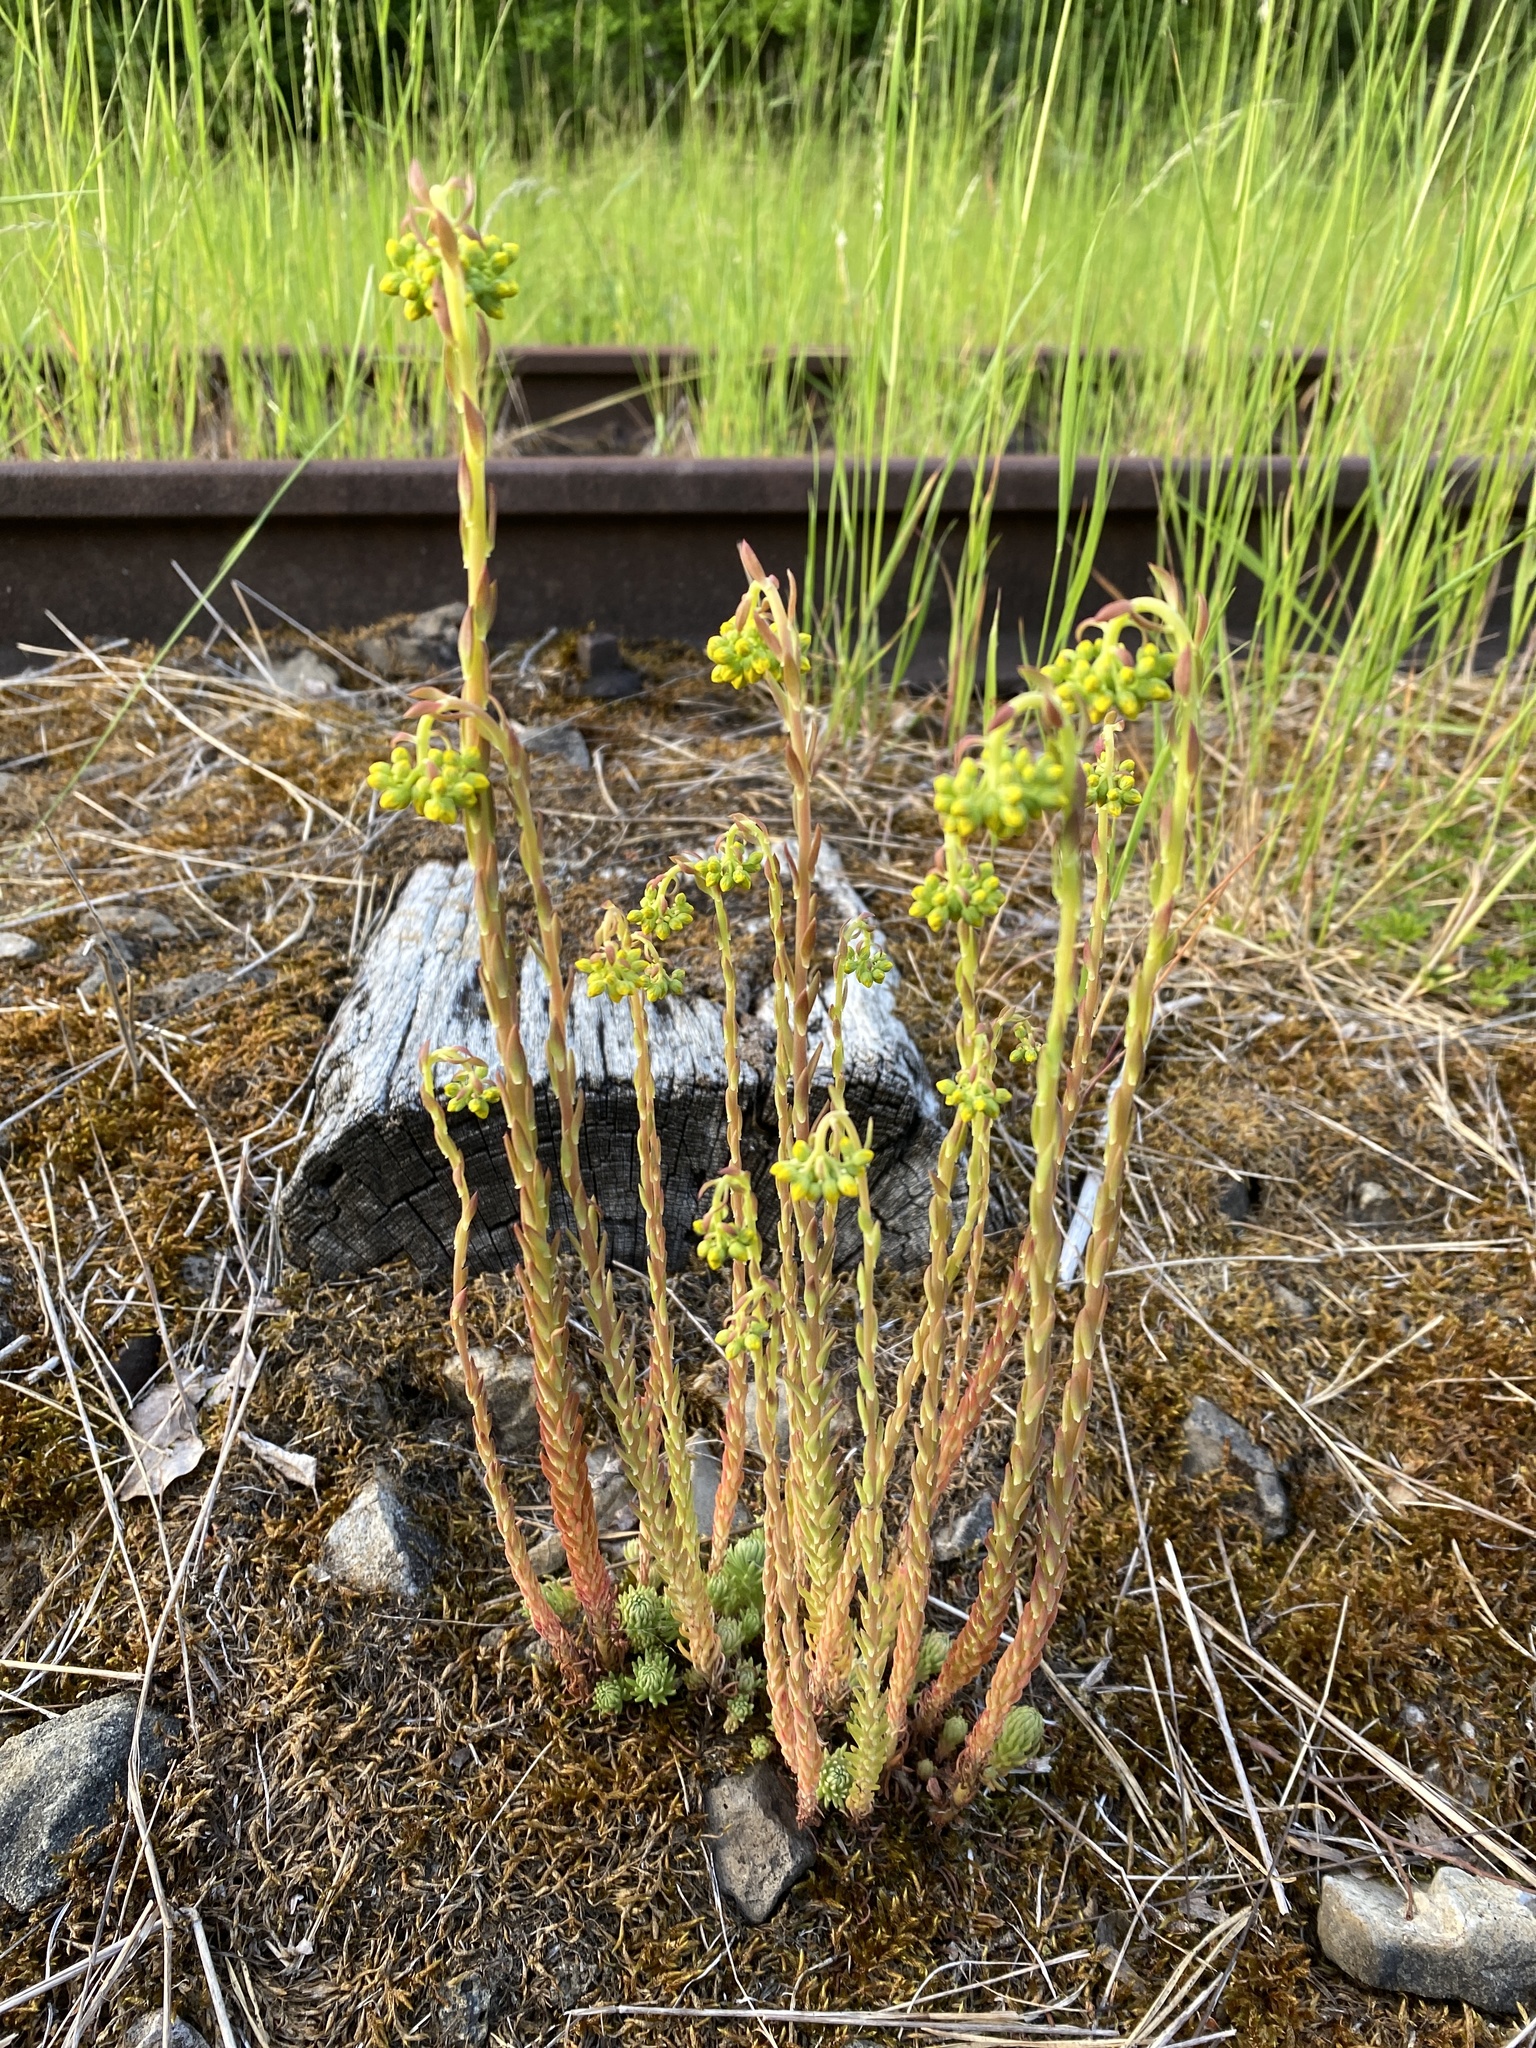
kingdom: Plantae
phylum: Tracheophyta
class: Magnoliopsida
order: Saxifragales
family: Crassulaceae
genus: Petrosedum
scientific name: Petrosedum forsterianum
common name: Forster's stonecrop
